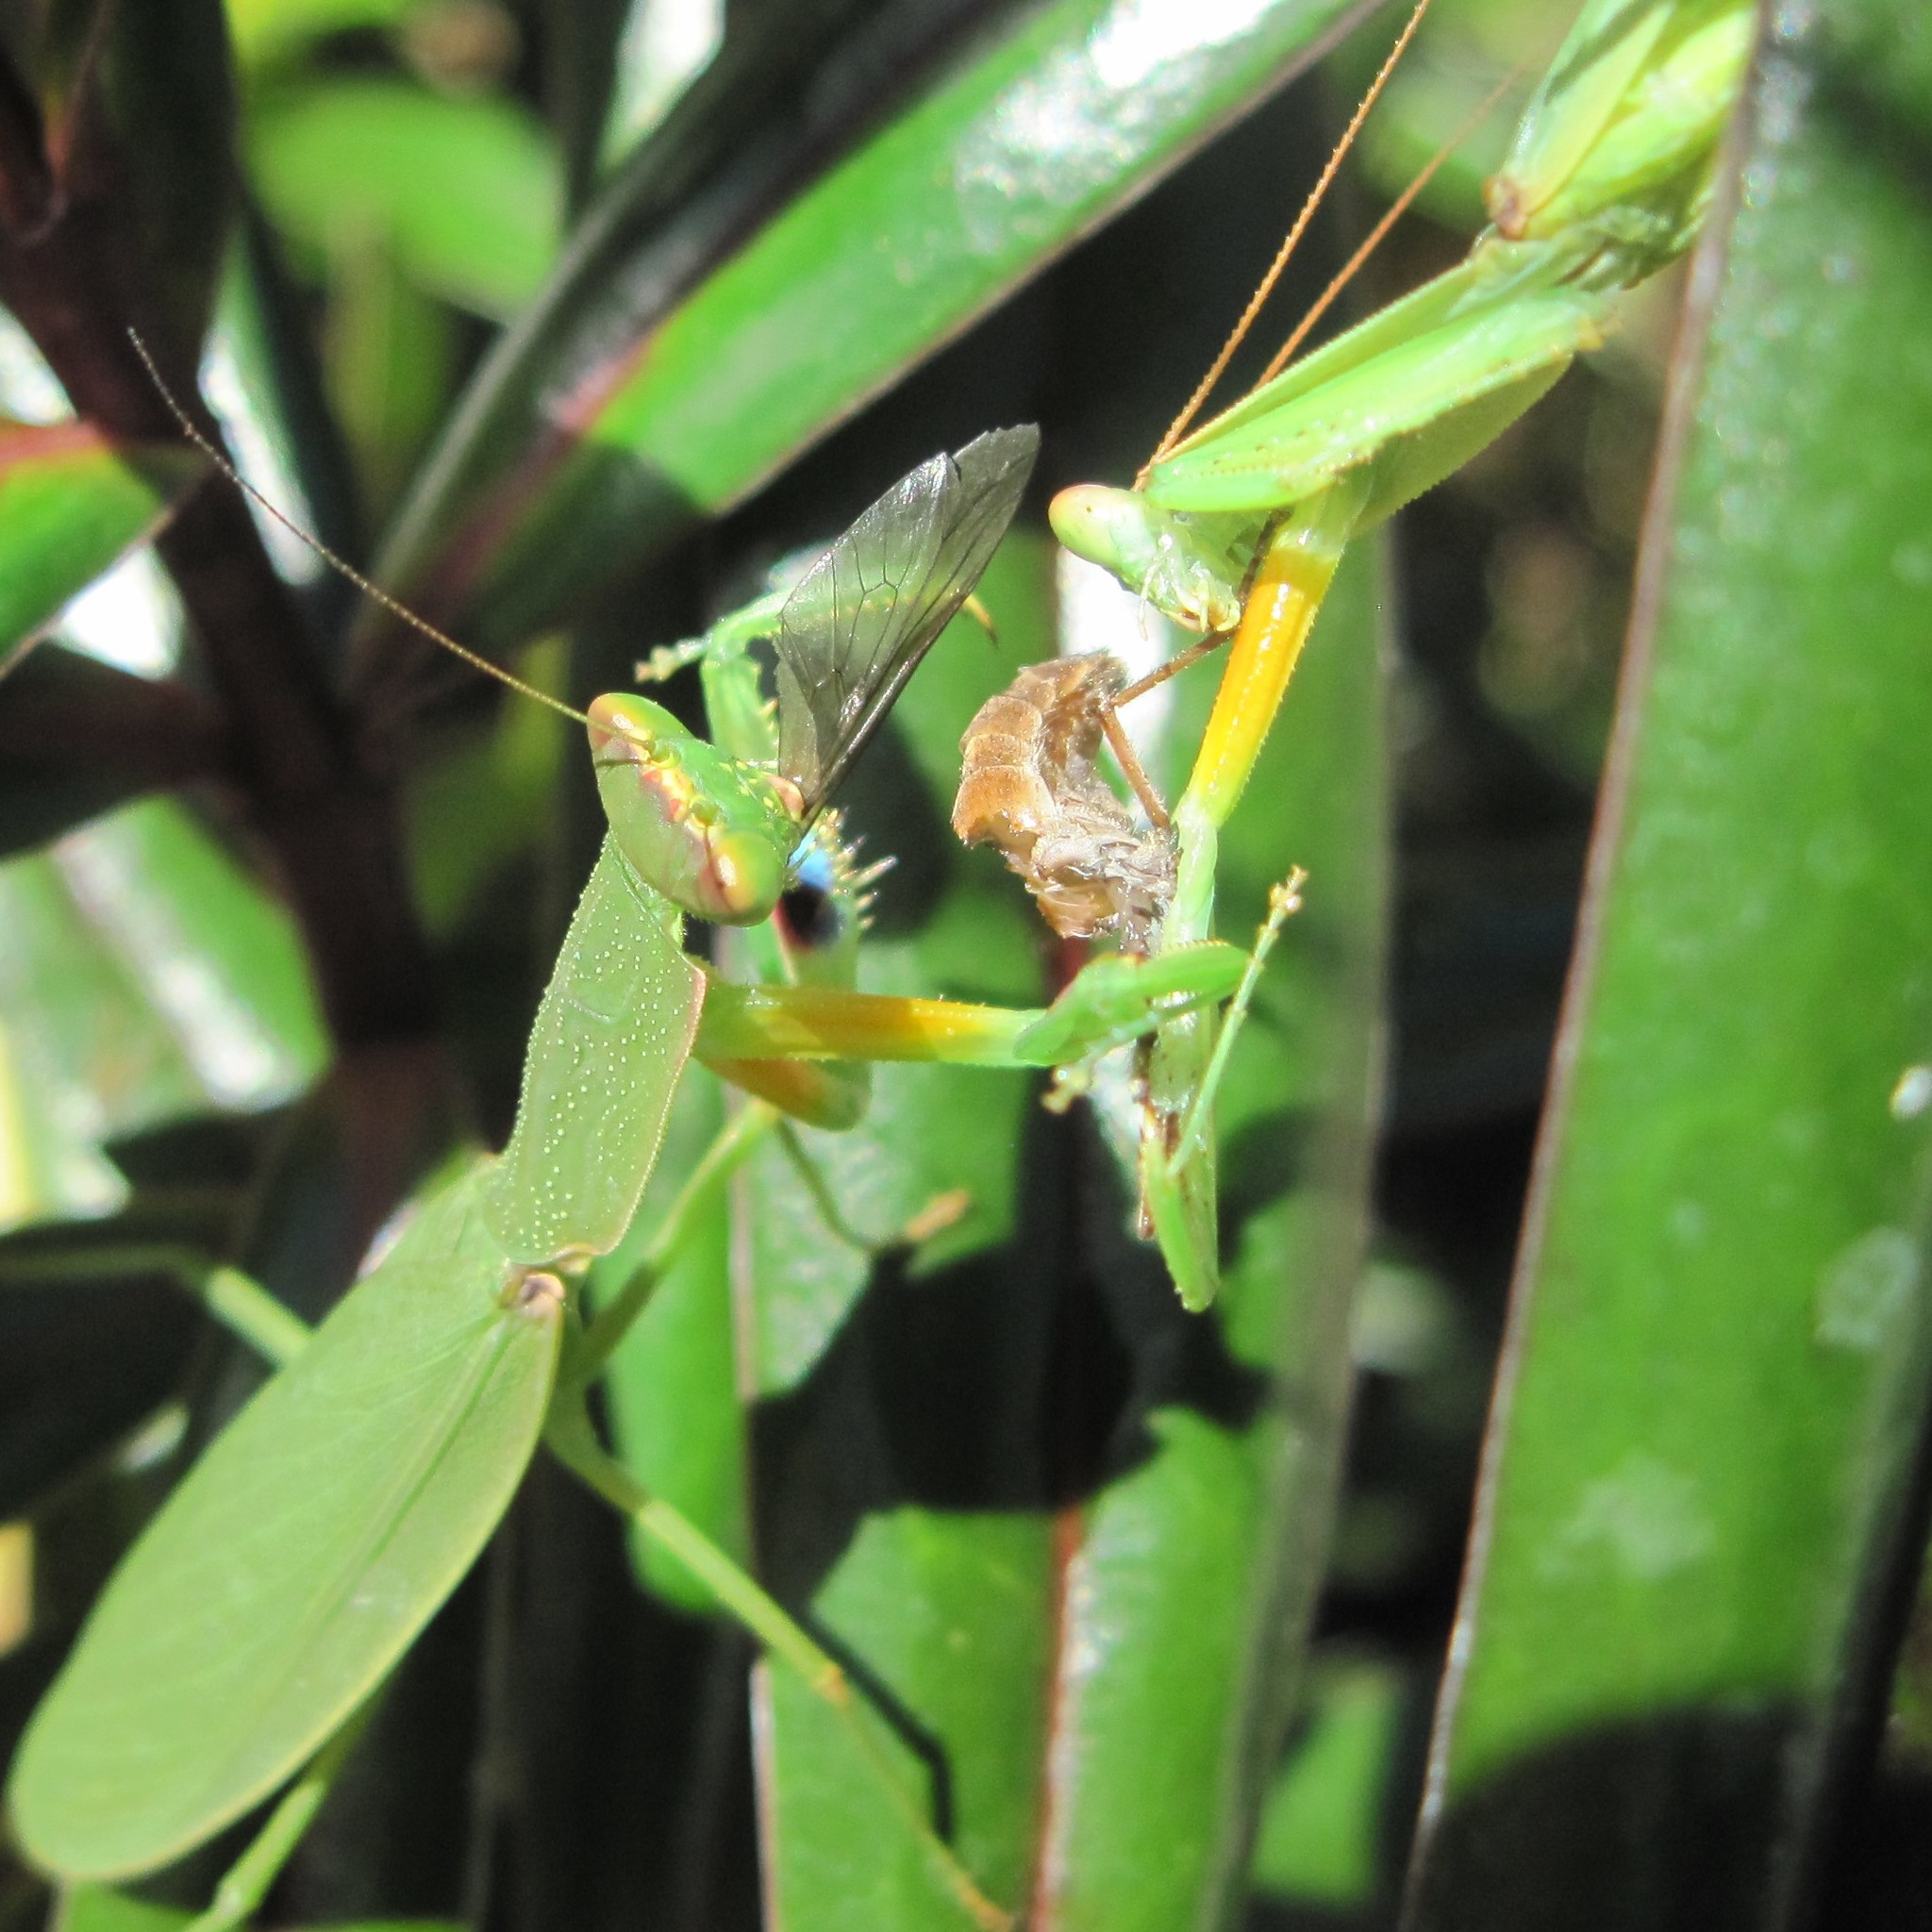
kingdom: Animalia
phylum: Arthropoda
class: Insecta
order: Mantodea
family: Mantidae
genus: Orthodera
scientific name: Orthodera novaezealandiae
